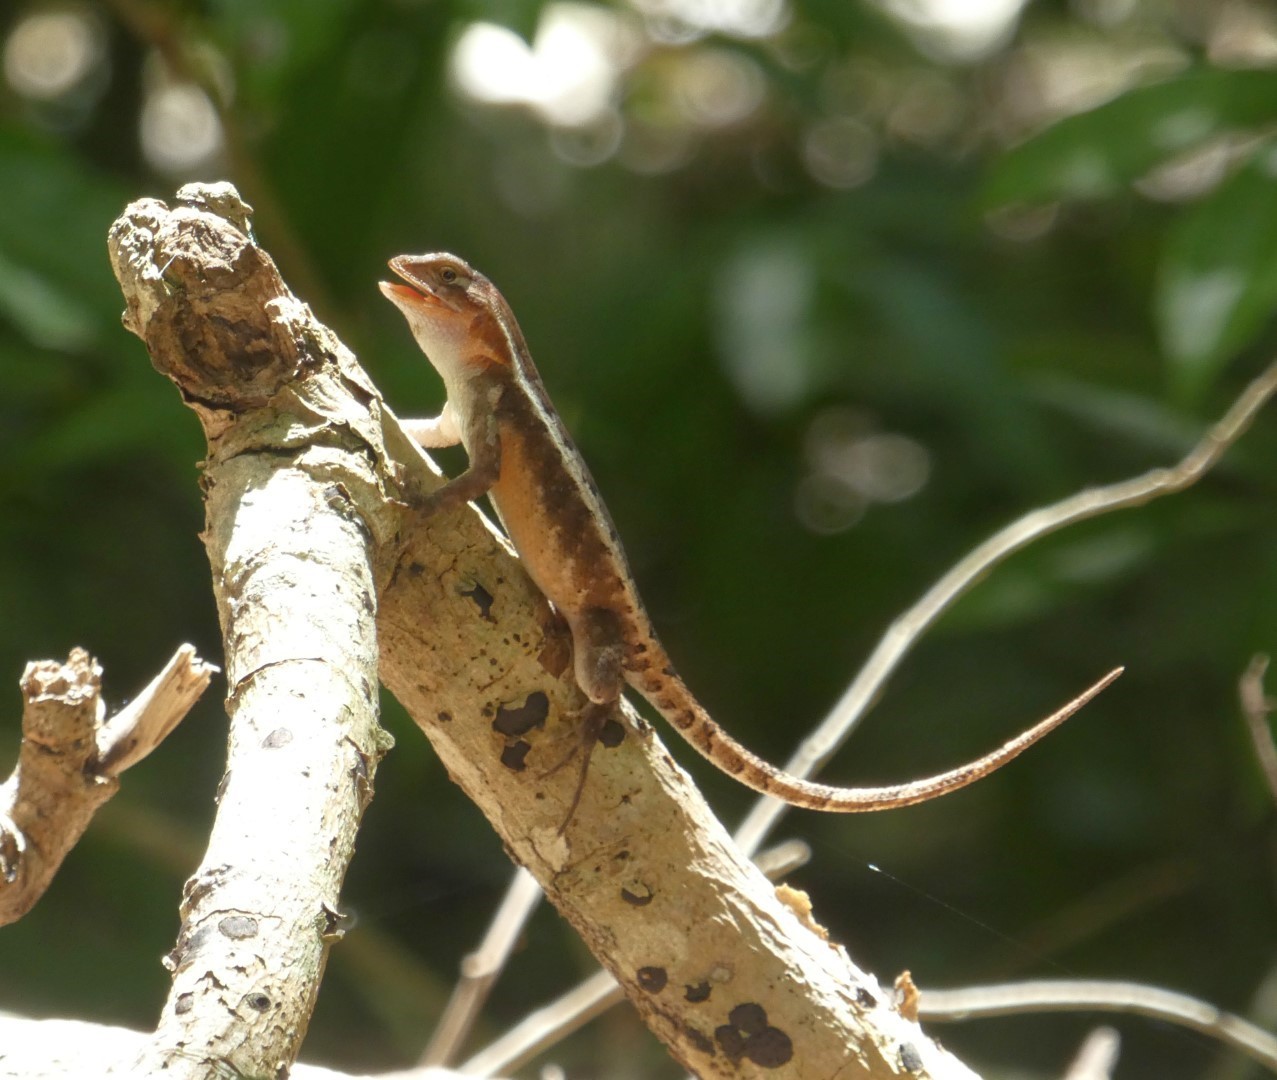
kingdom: Animalia
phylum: Chordata
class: Squamata
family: Phrynosomatidae
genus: Sceloporus
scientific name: Sceloporus chrysostictus
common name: Yellow-spotted spiny lizard
